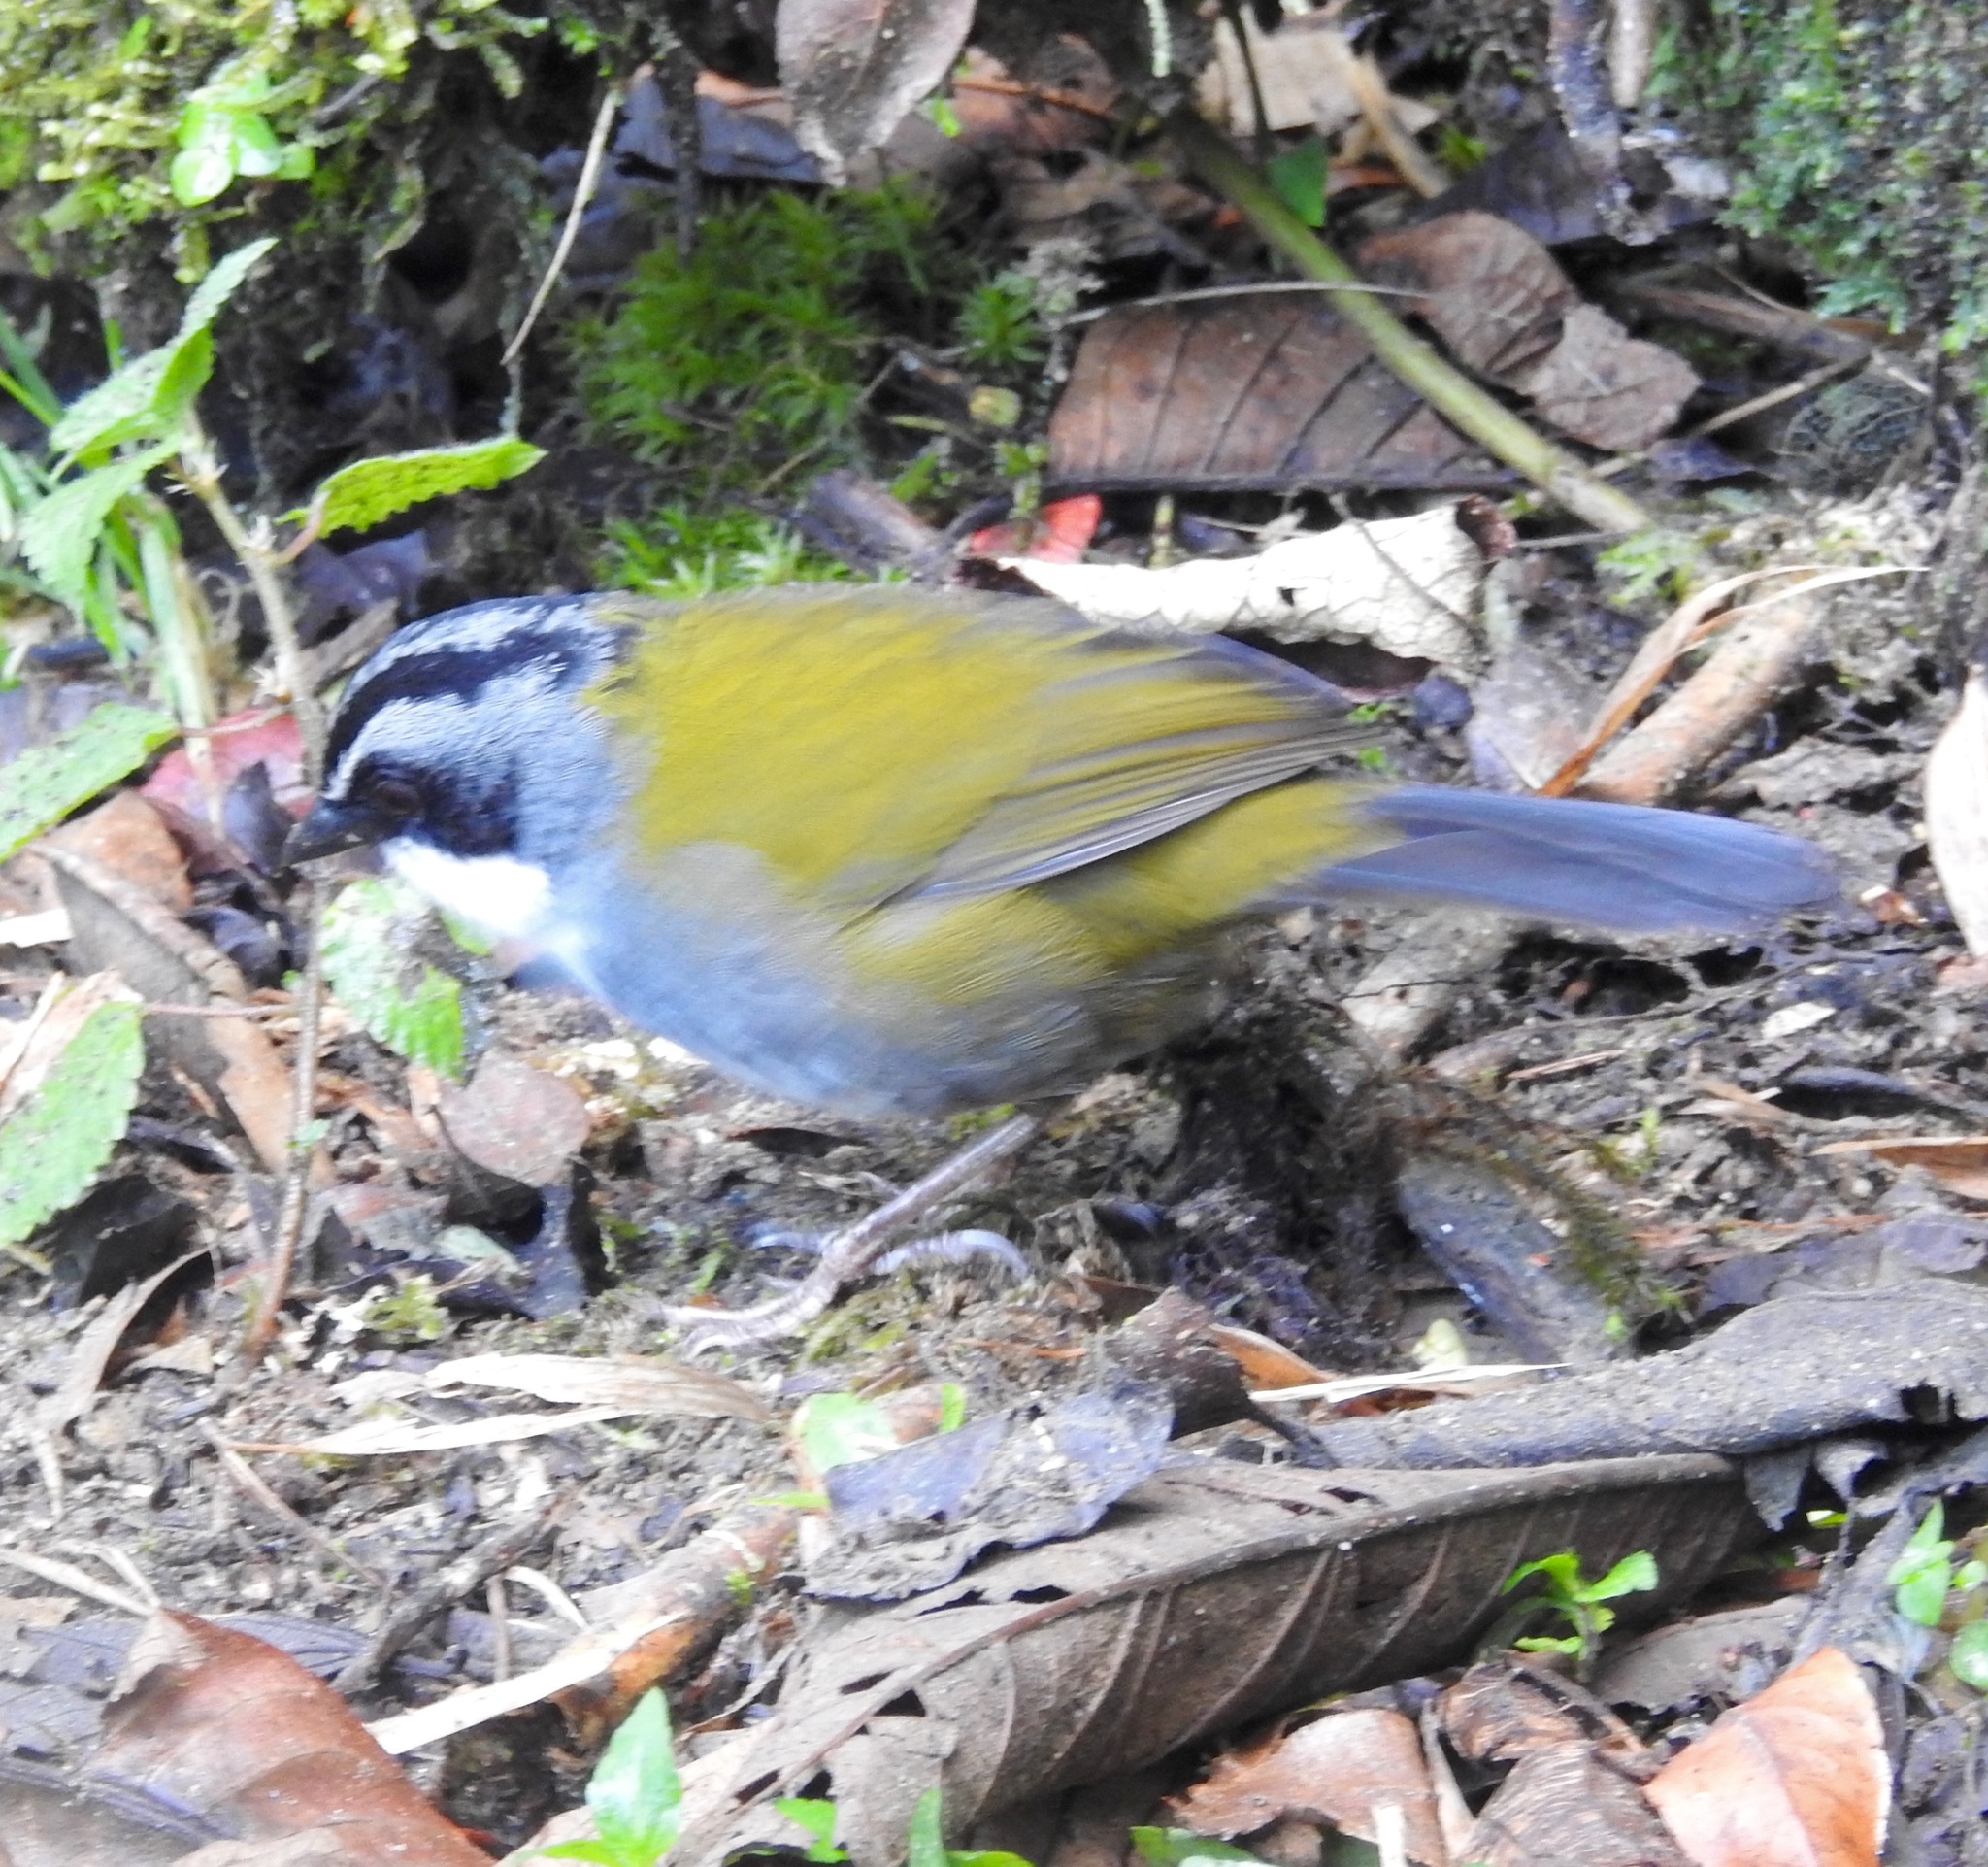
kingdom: Animalia
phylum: Chordata
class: Aves
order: Passeriformes
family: Passerellidae
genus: Arremon
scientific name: Arremon assimilis
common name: Grey-browed brushfinch
